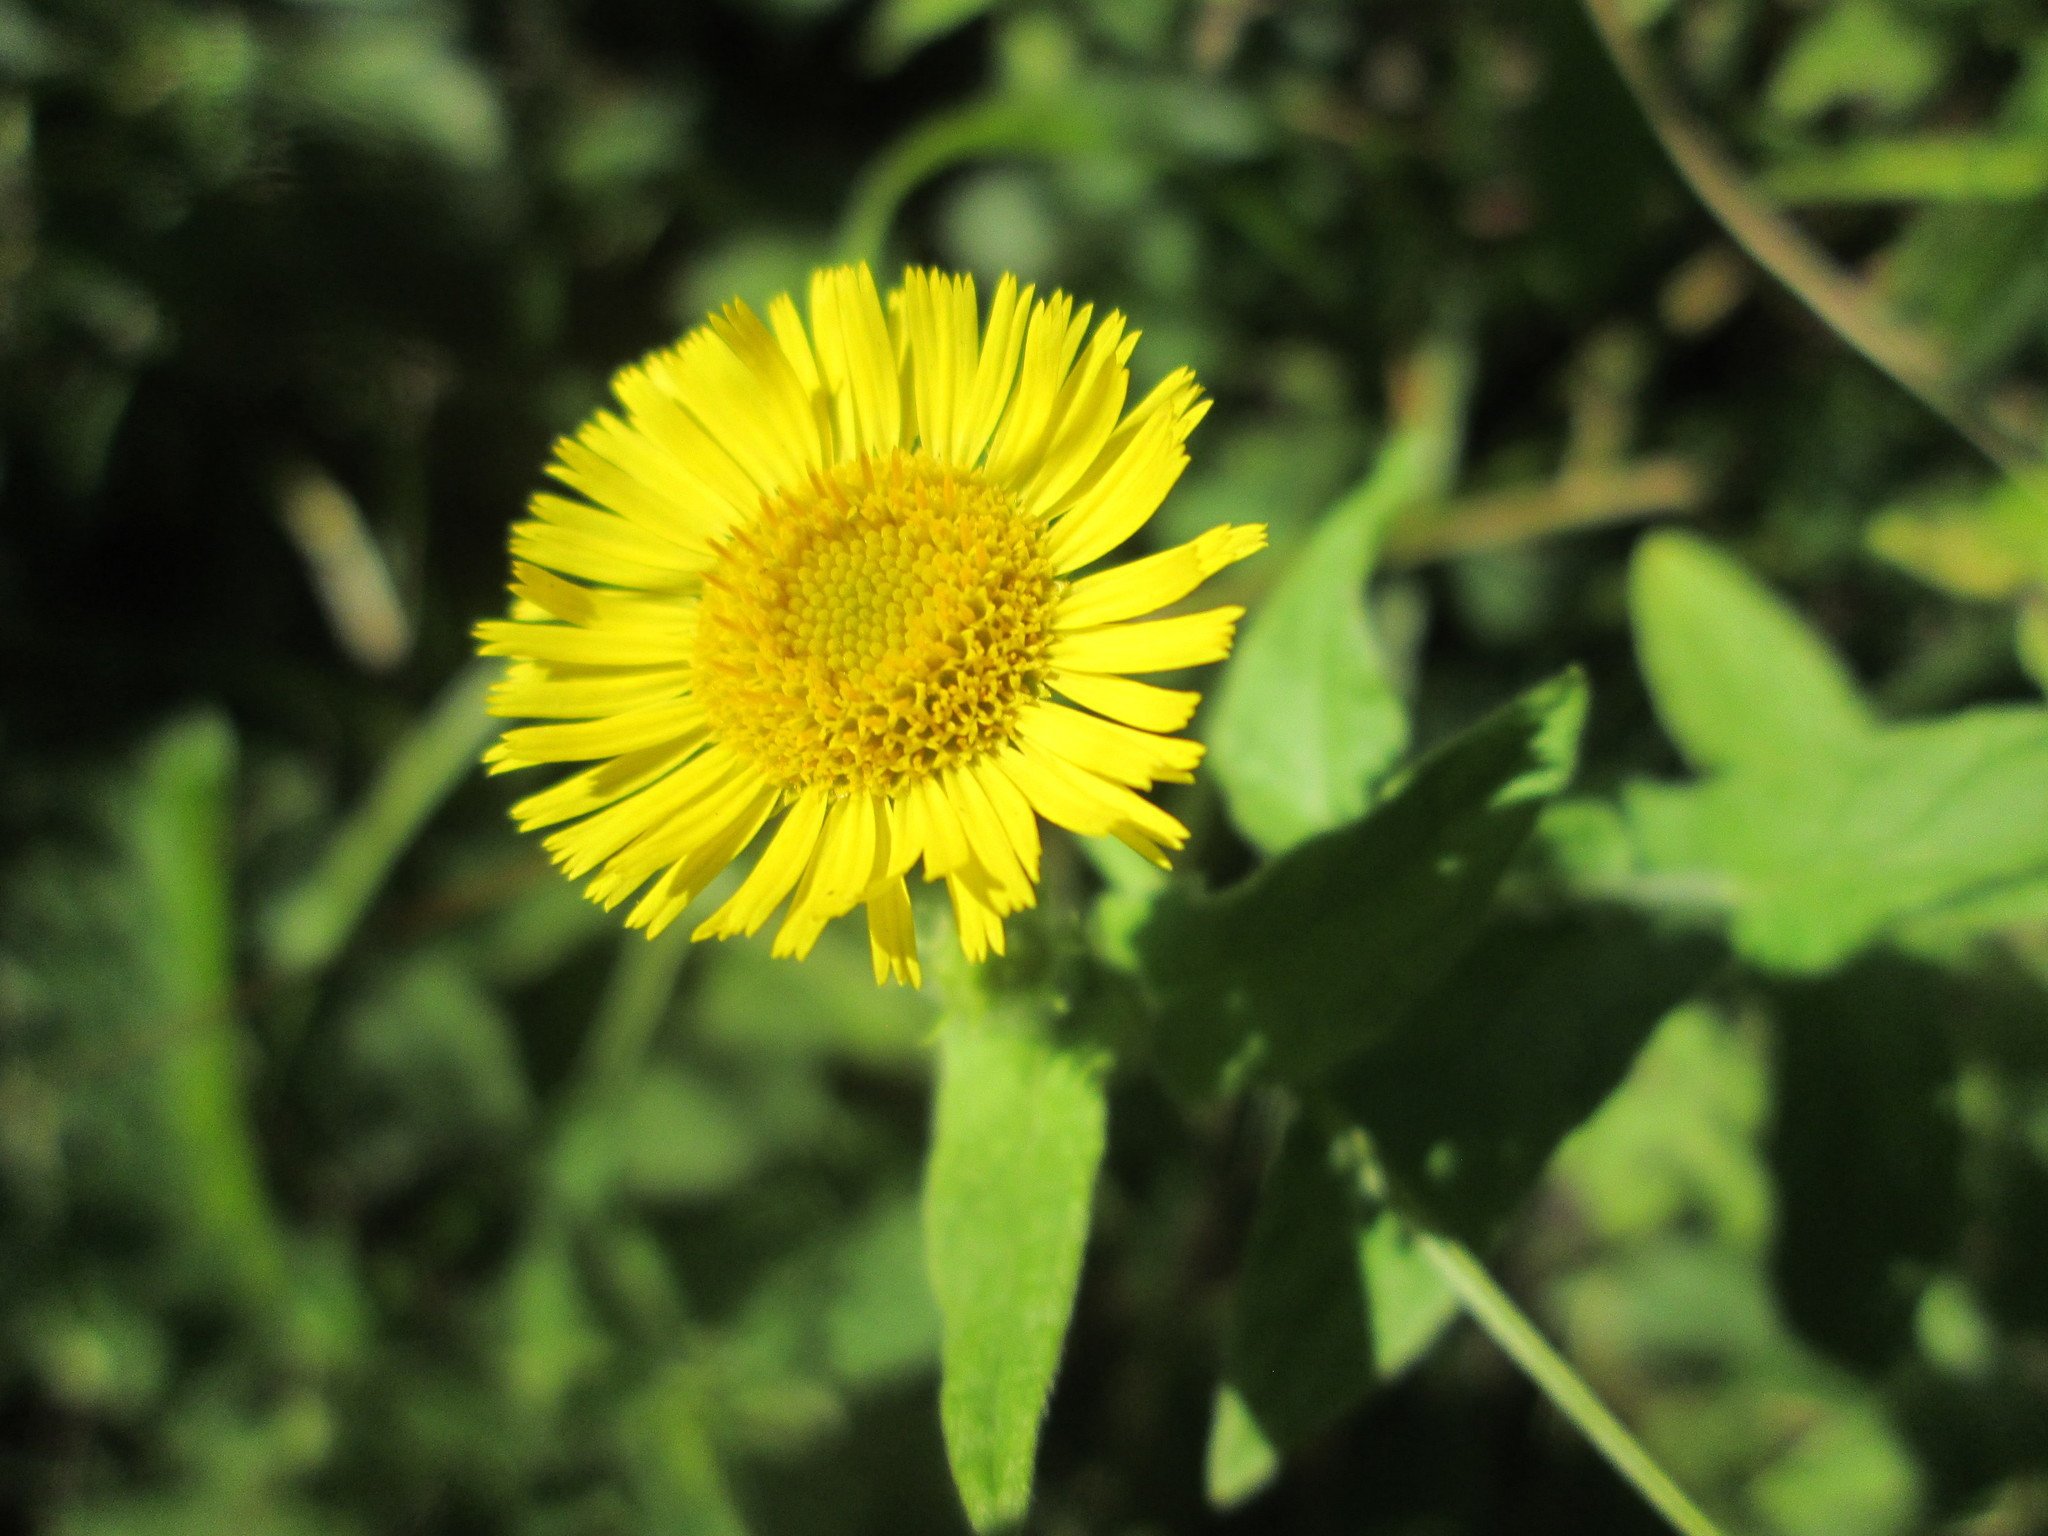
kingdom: Plantae
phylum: Tracheophyta
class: Magnoliopsida
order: Asterales
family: Asteraceae
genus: Pulicaria
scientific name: Pulicaria dysenterica
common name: Common fleabane
